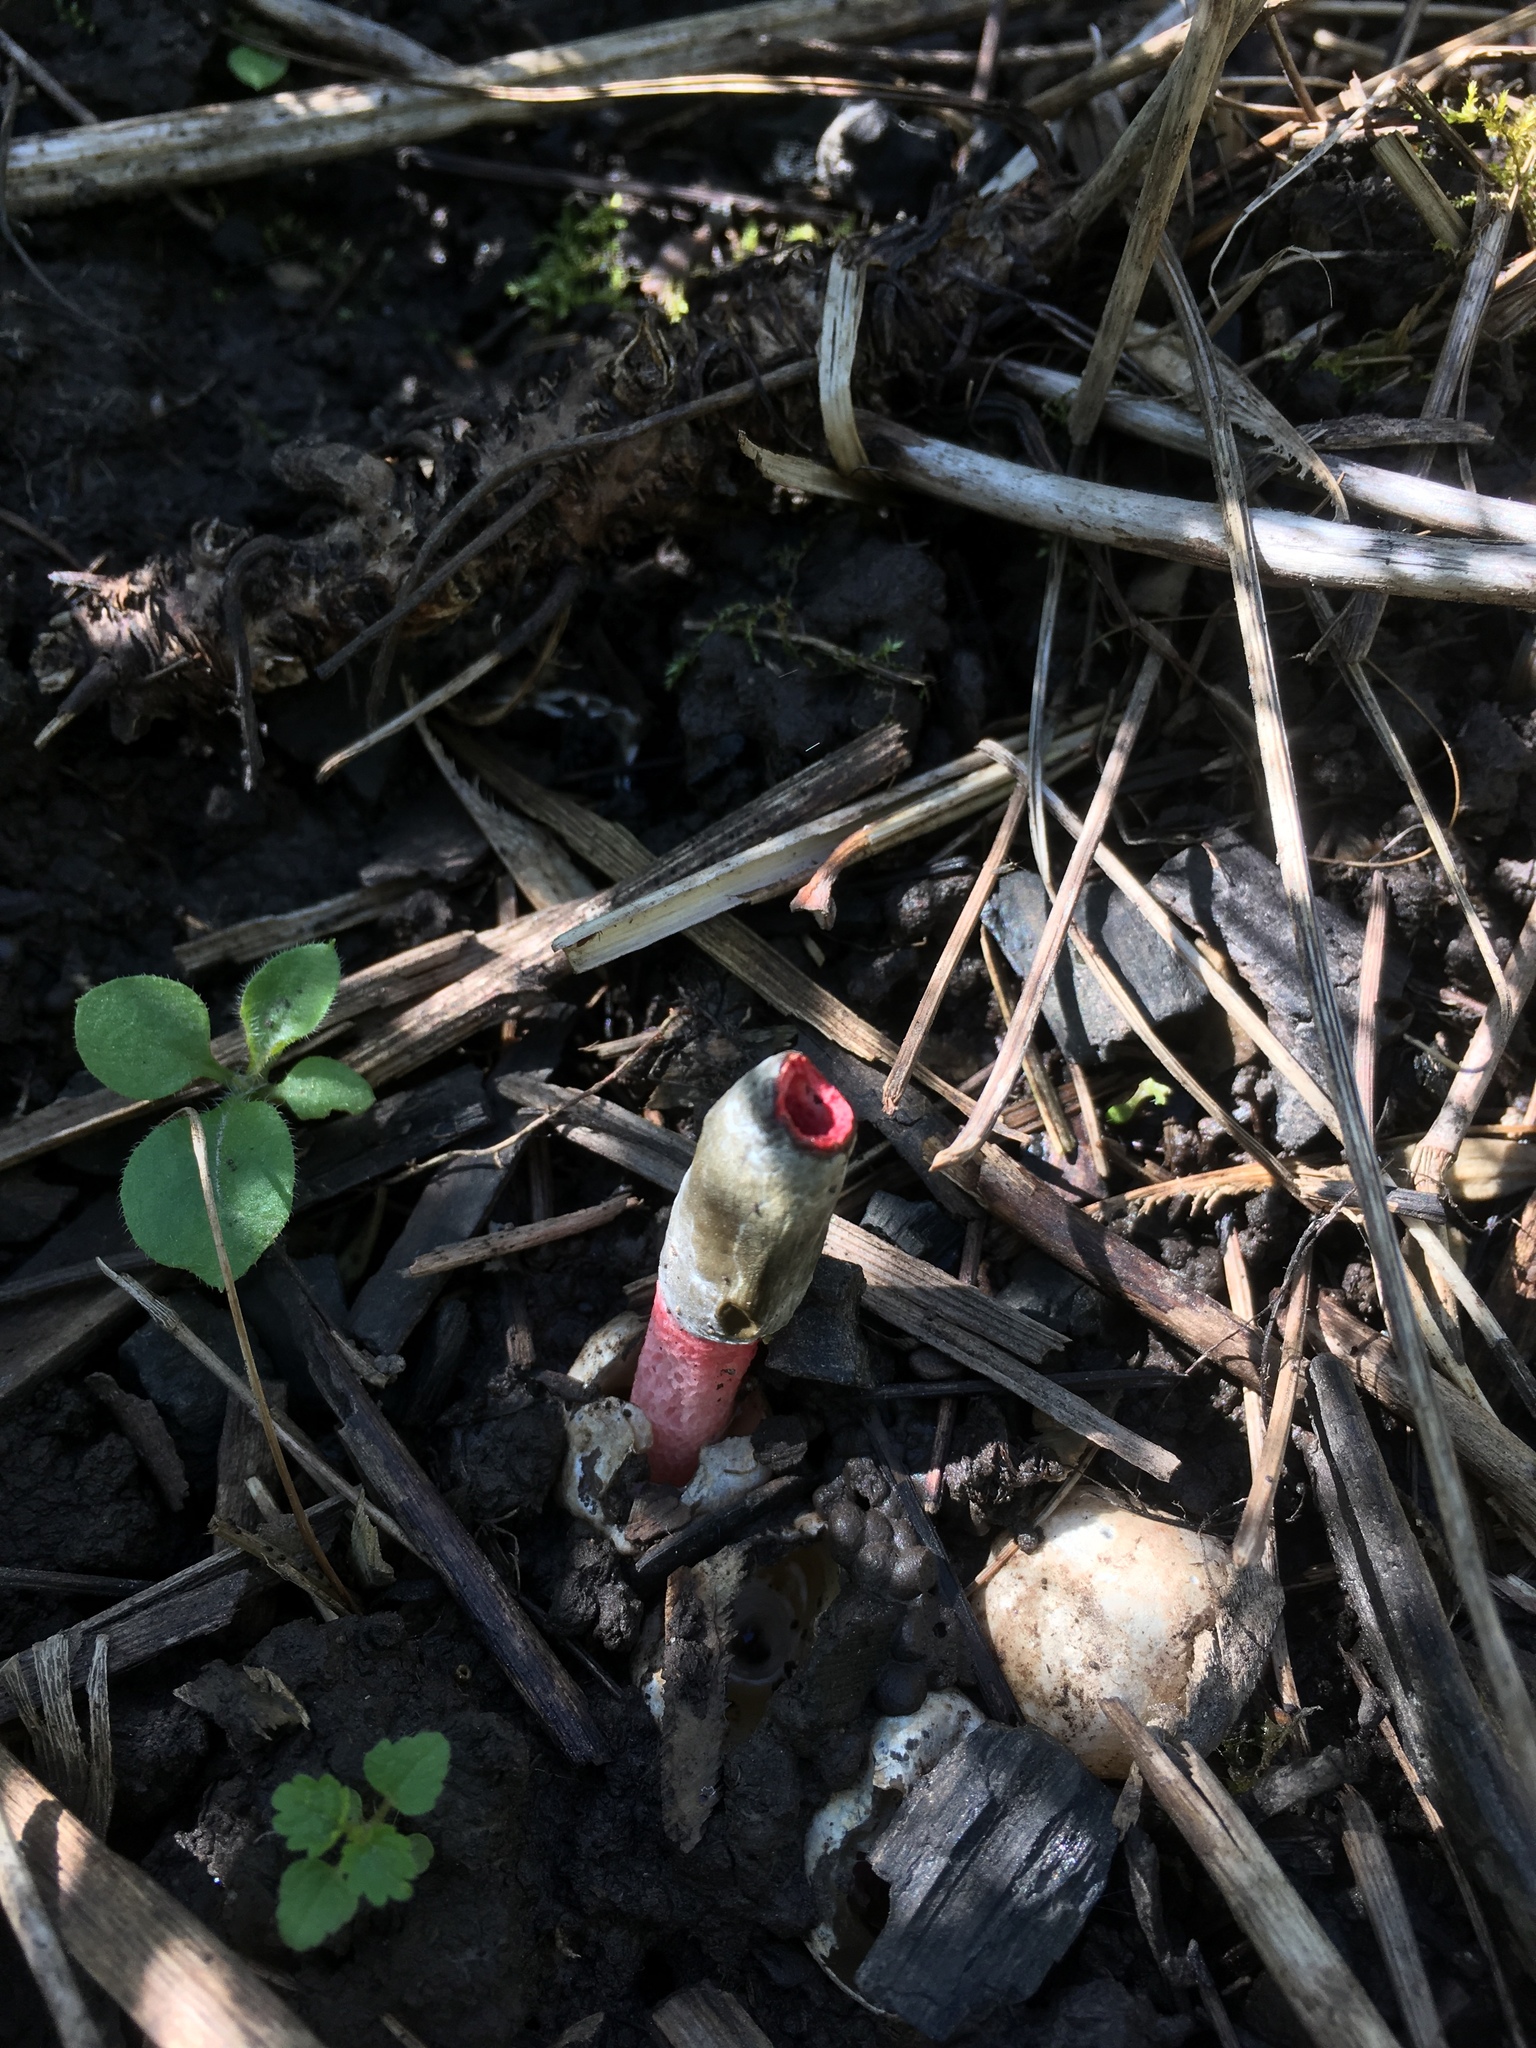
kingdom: Fungi
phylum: Basidiomycota
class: Agaricomycetes
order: Phallales
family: Phallaceae
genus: Mutinus
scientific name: Mutinus ravenelii
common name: Red stinkhorn
